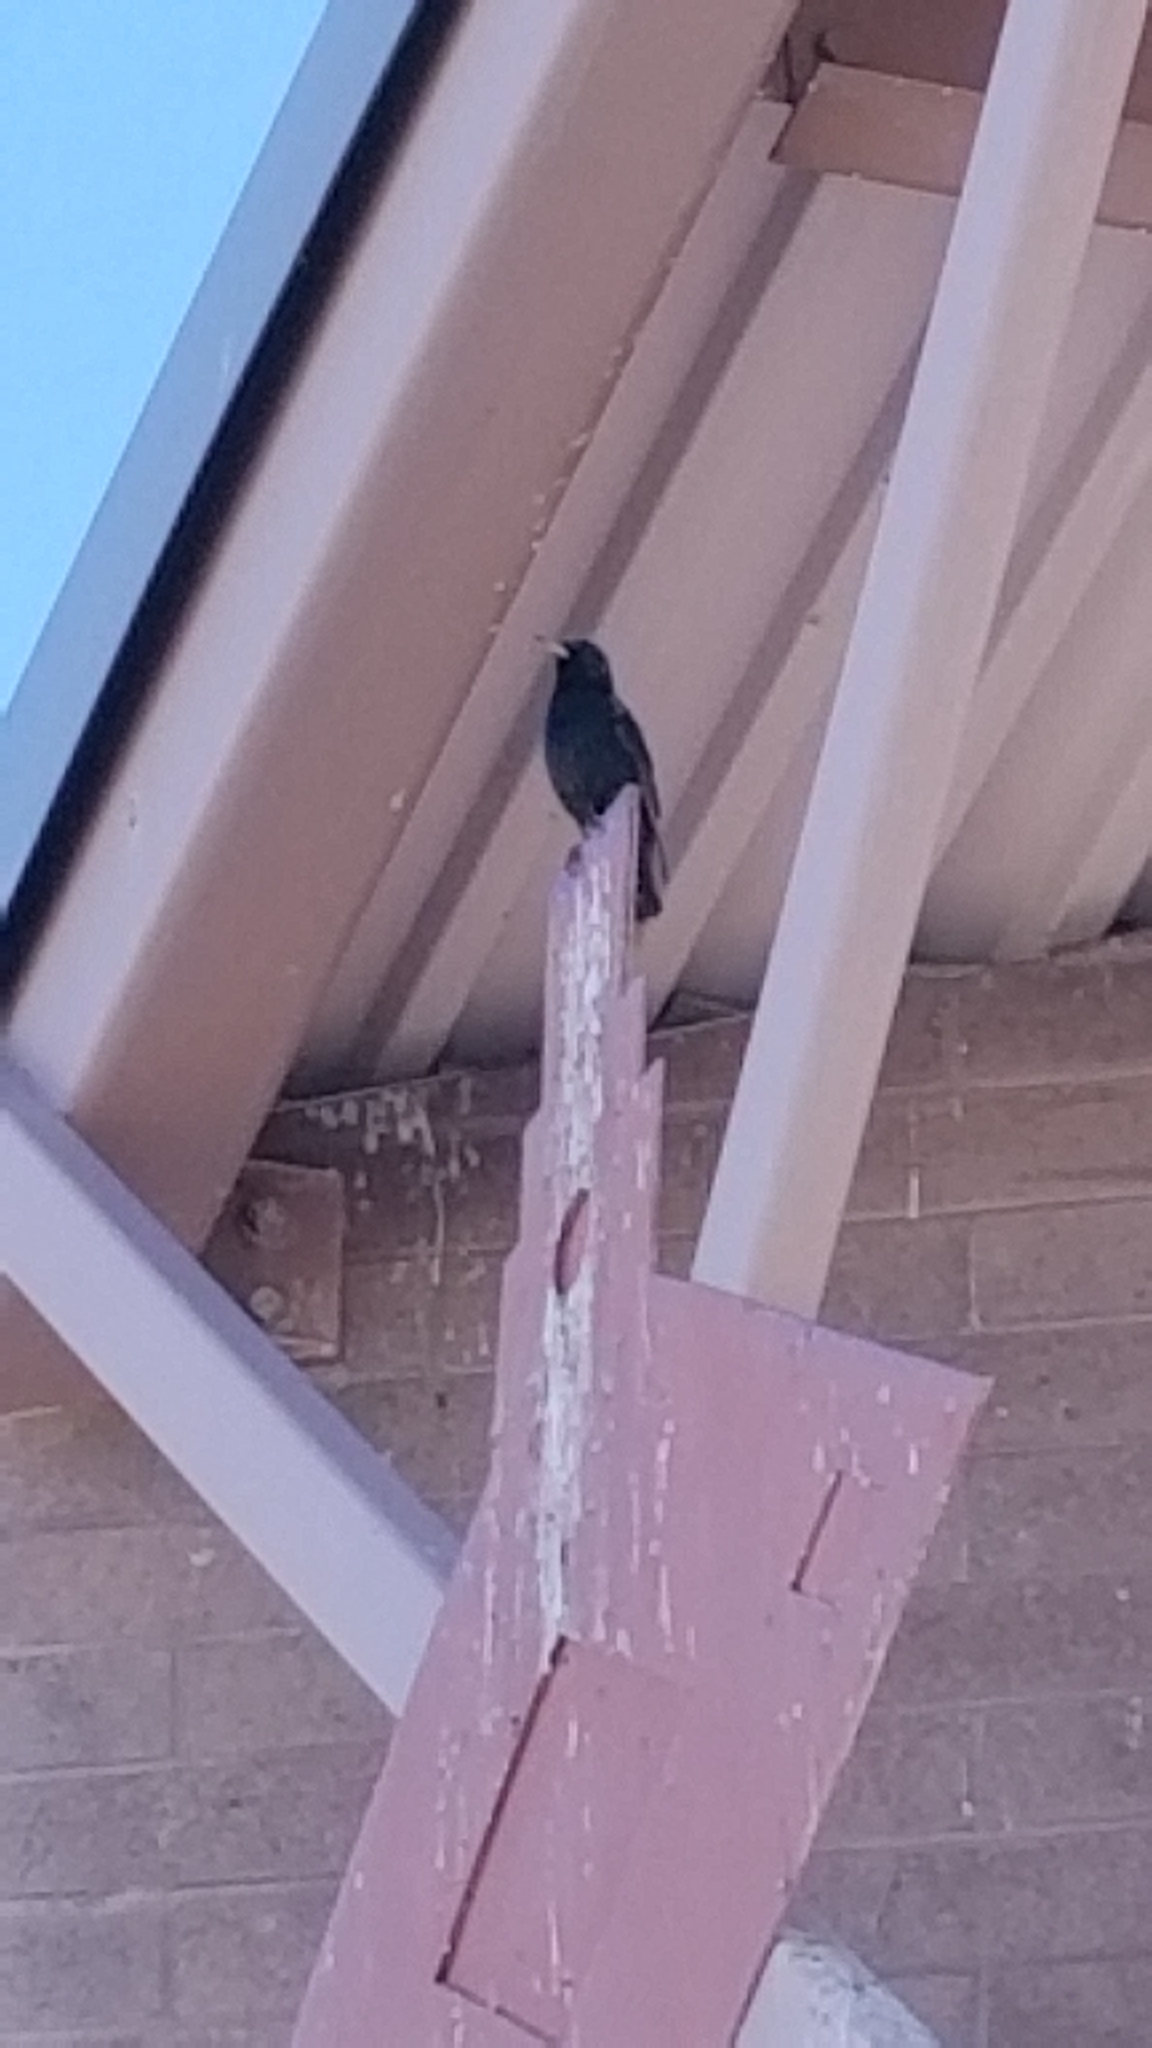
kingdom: Animalia
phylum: Chordata
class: Aves
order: Passeriformes
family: Sturnidae
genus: Sturnus
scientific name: Sturnus vulgaris
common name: Common starling
